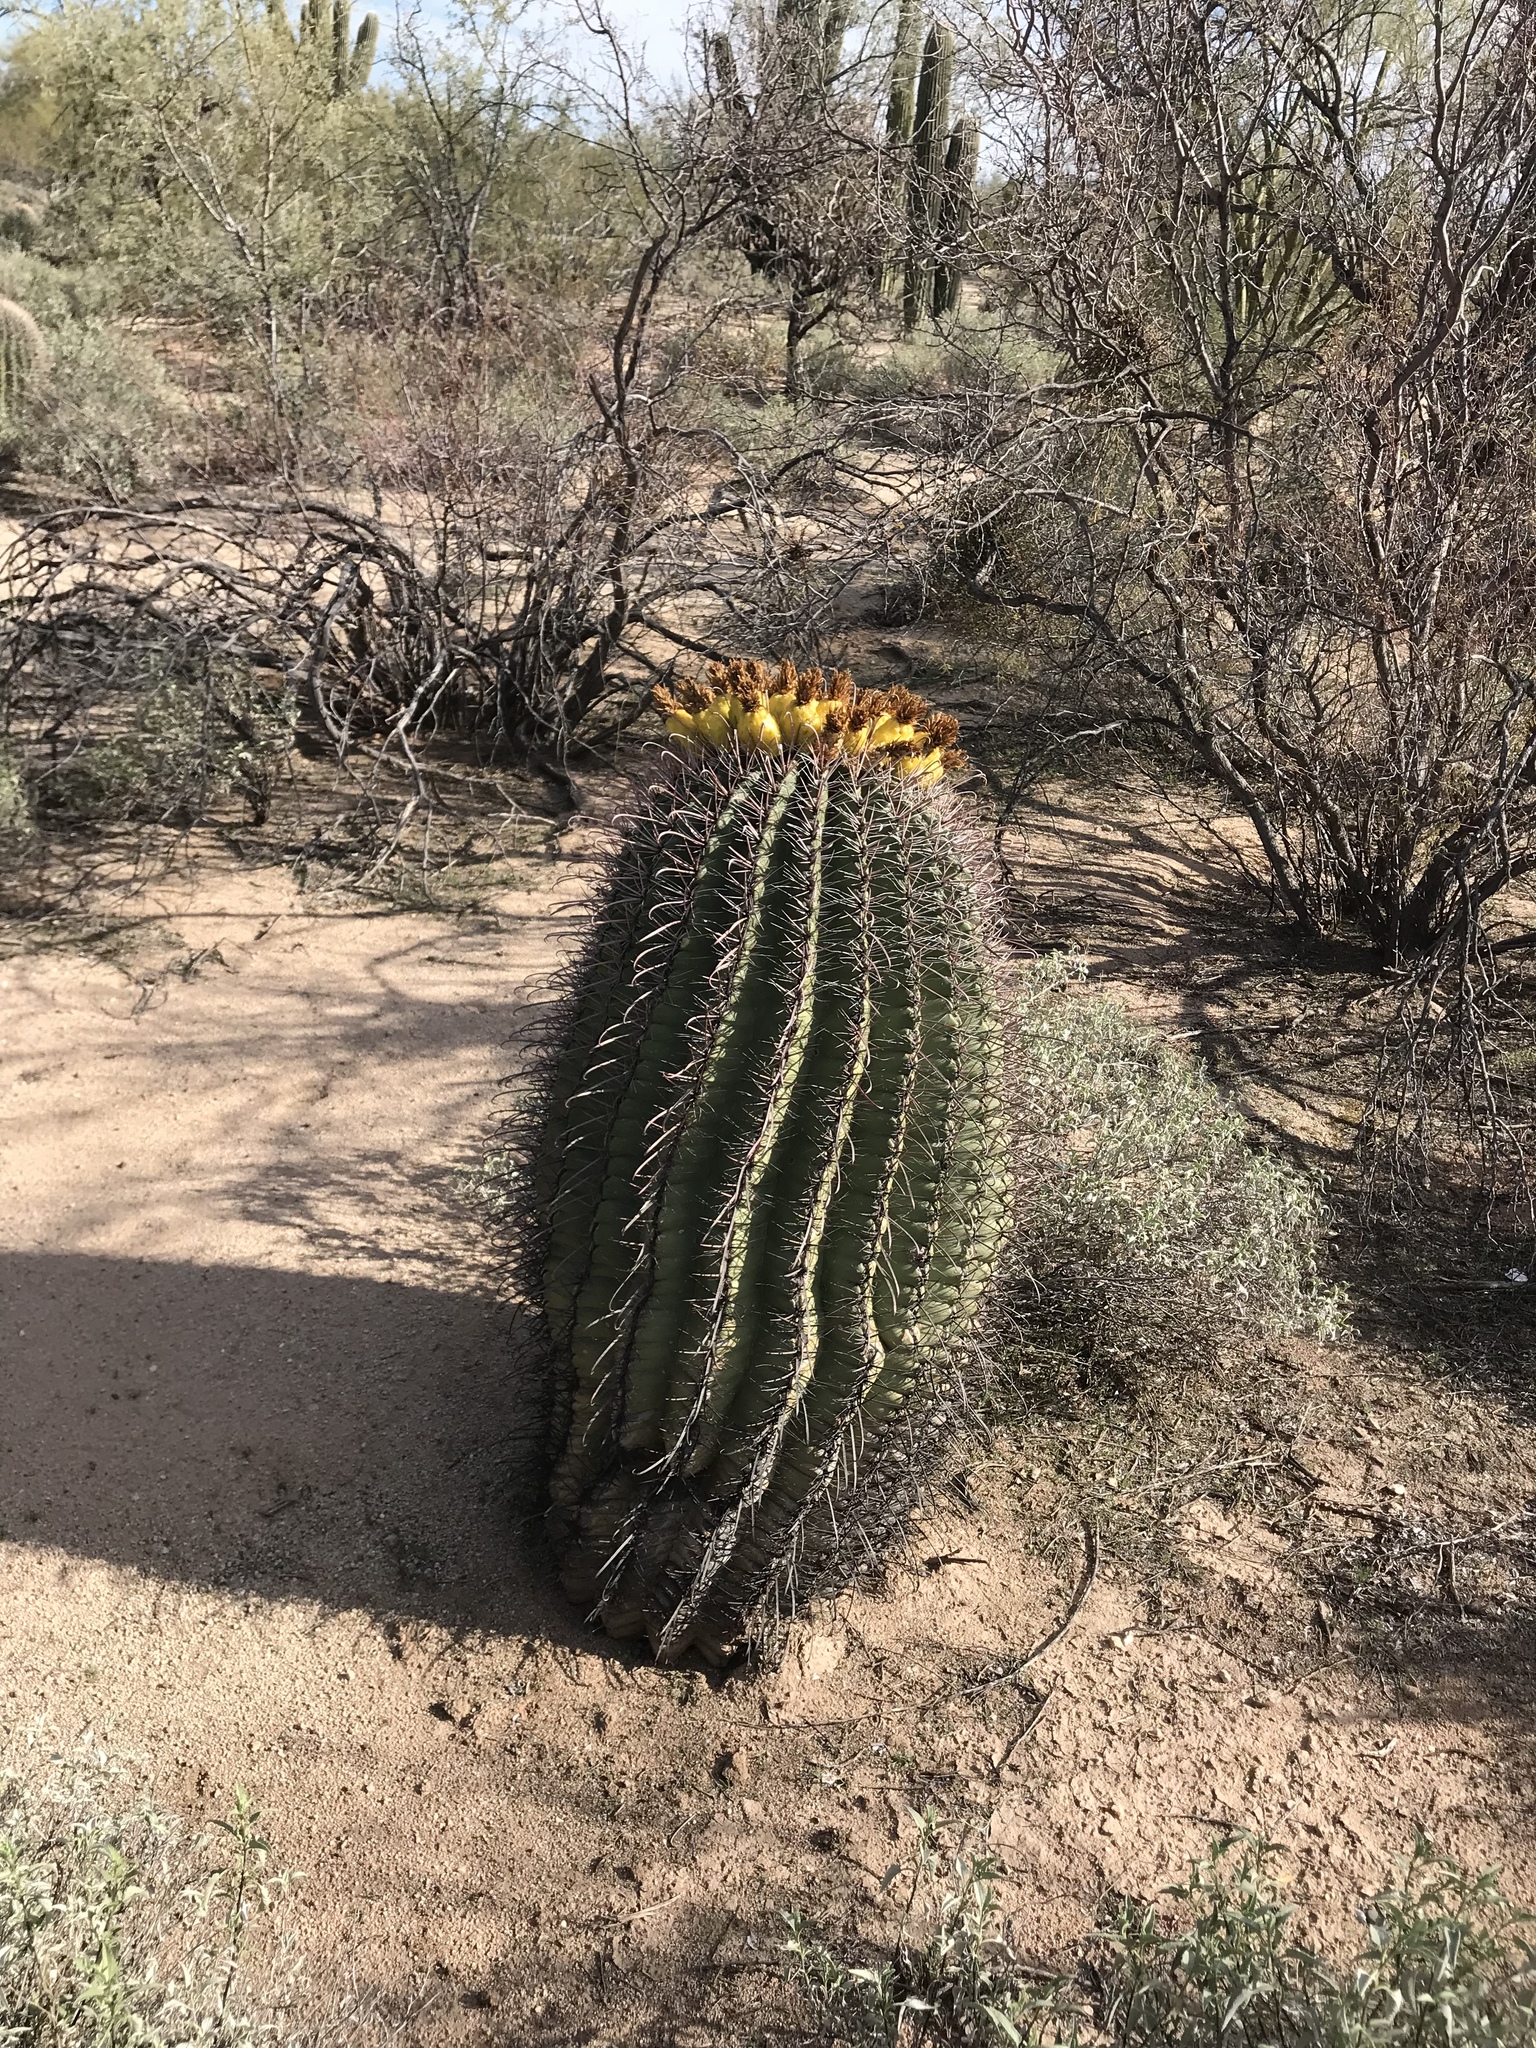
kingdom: Plantae
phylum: Tracheophyta
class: Magnoliopsida
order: Caryophyllales
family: Cactaceae
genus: Ferocactus
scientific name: Ferocactus wislizeni
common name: Candy barrel cactus
